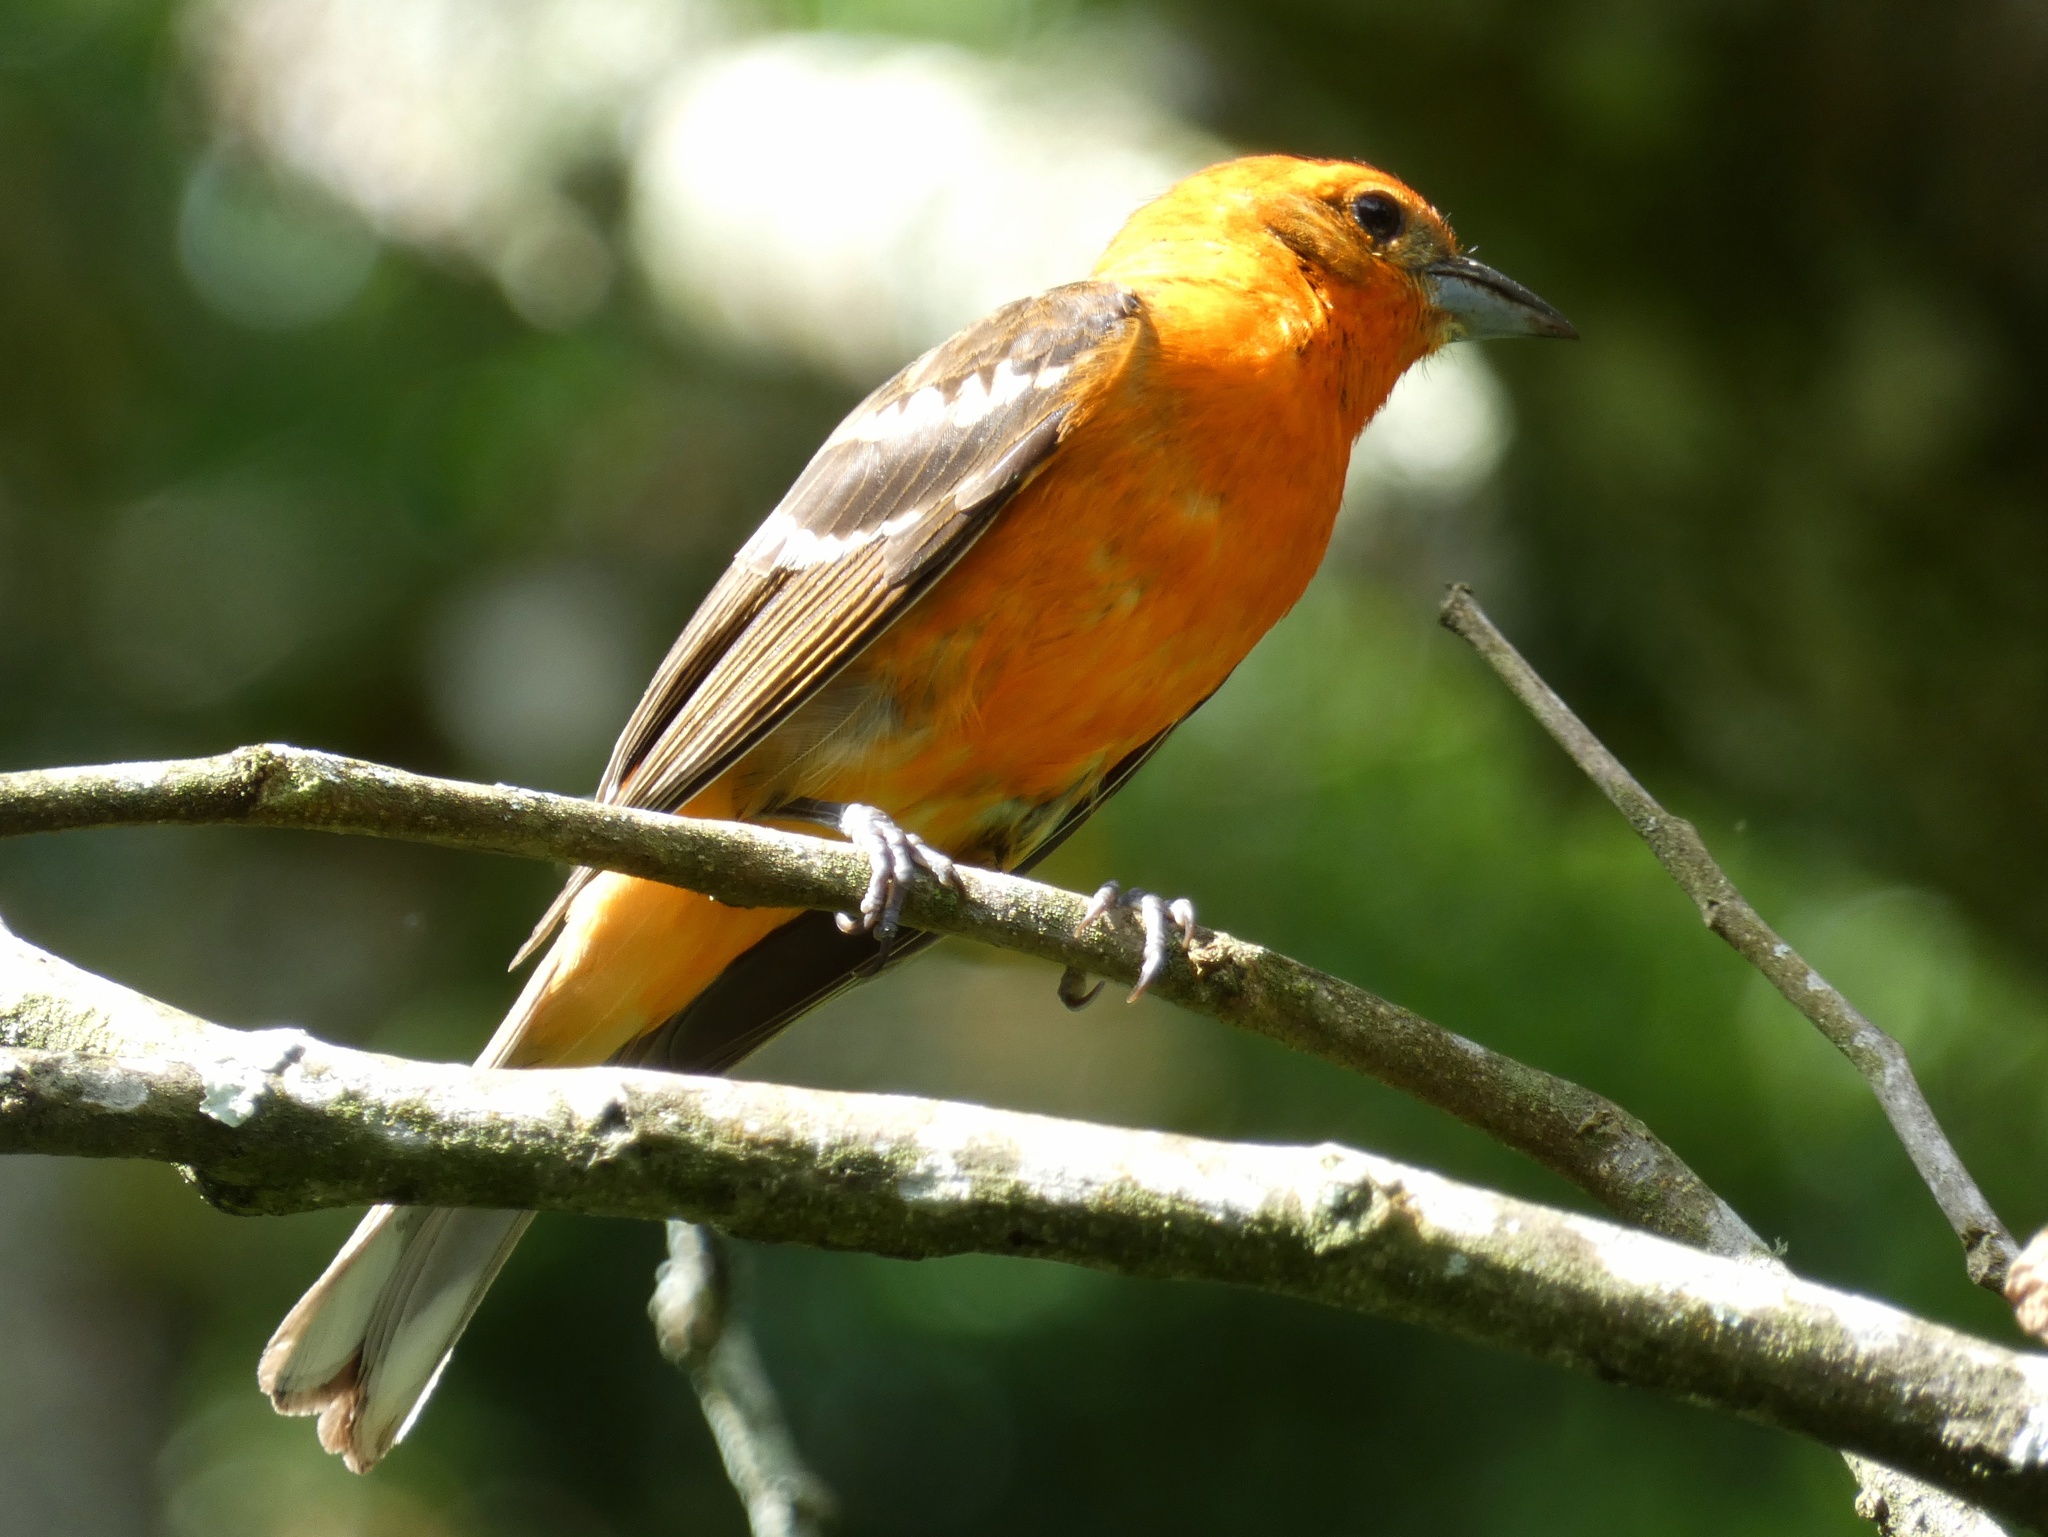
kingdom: Animalia
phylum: Chordata
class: Aves
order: Passeriformes
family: Cardinalidae
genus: Piranga
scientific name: Piranga bidentata
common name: Flame-colored tanager
